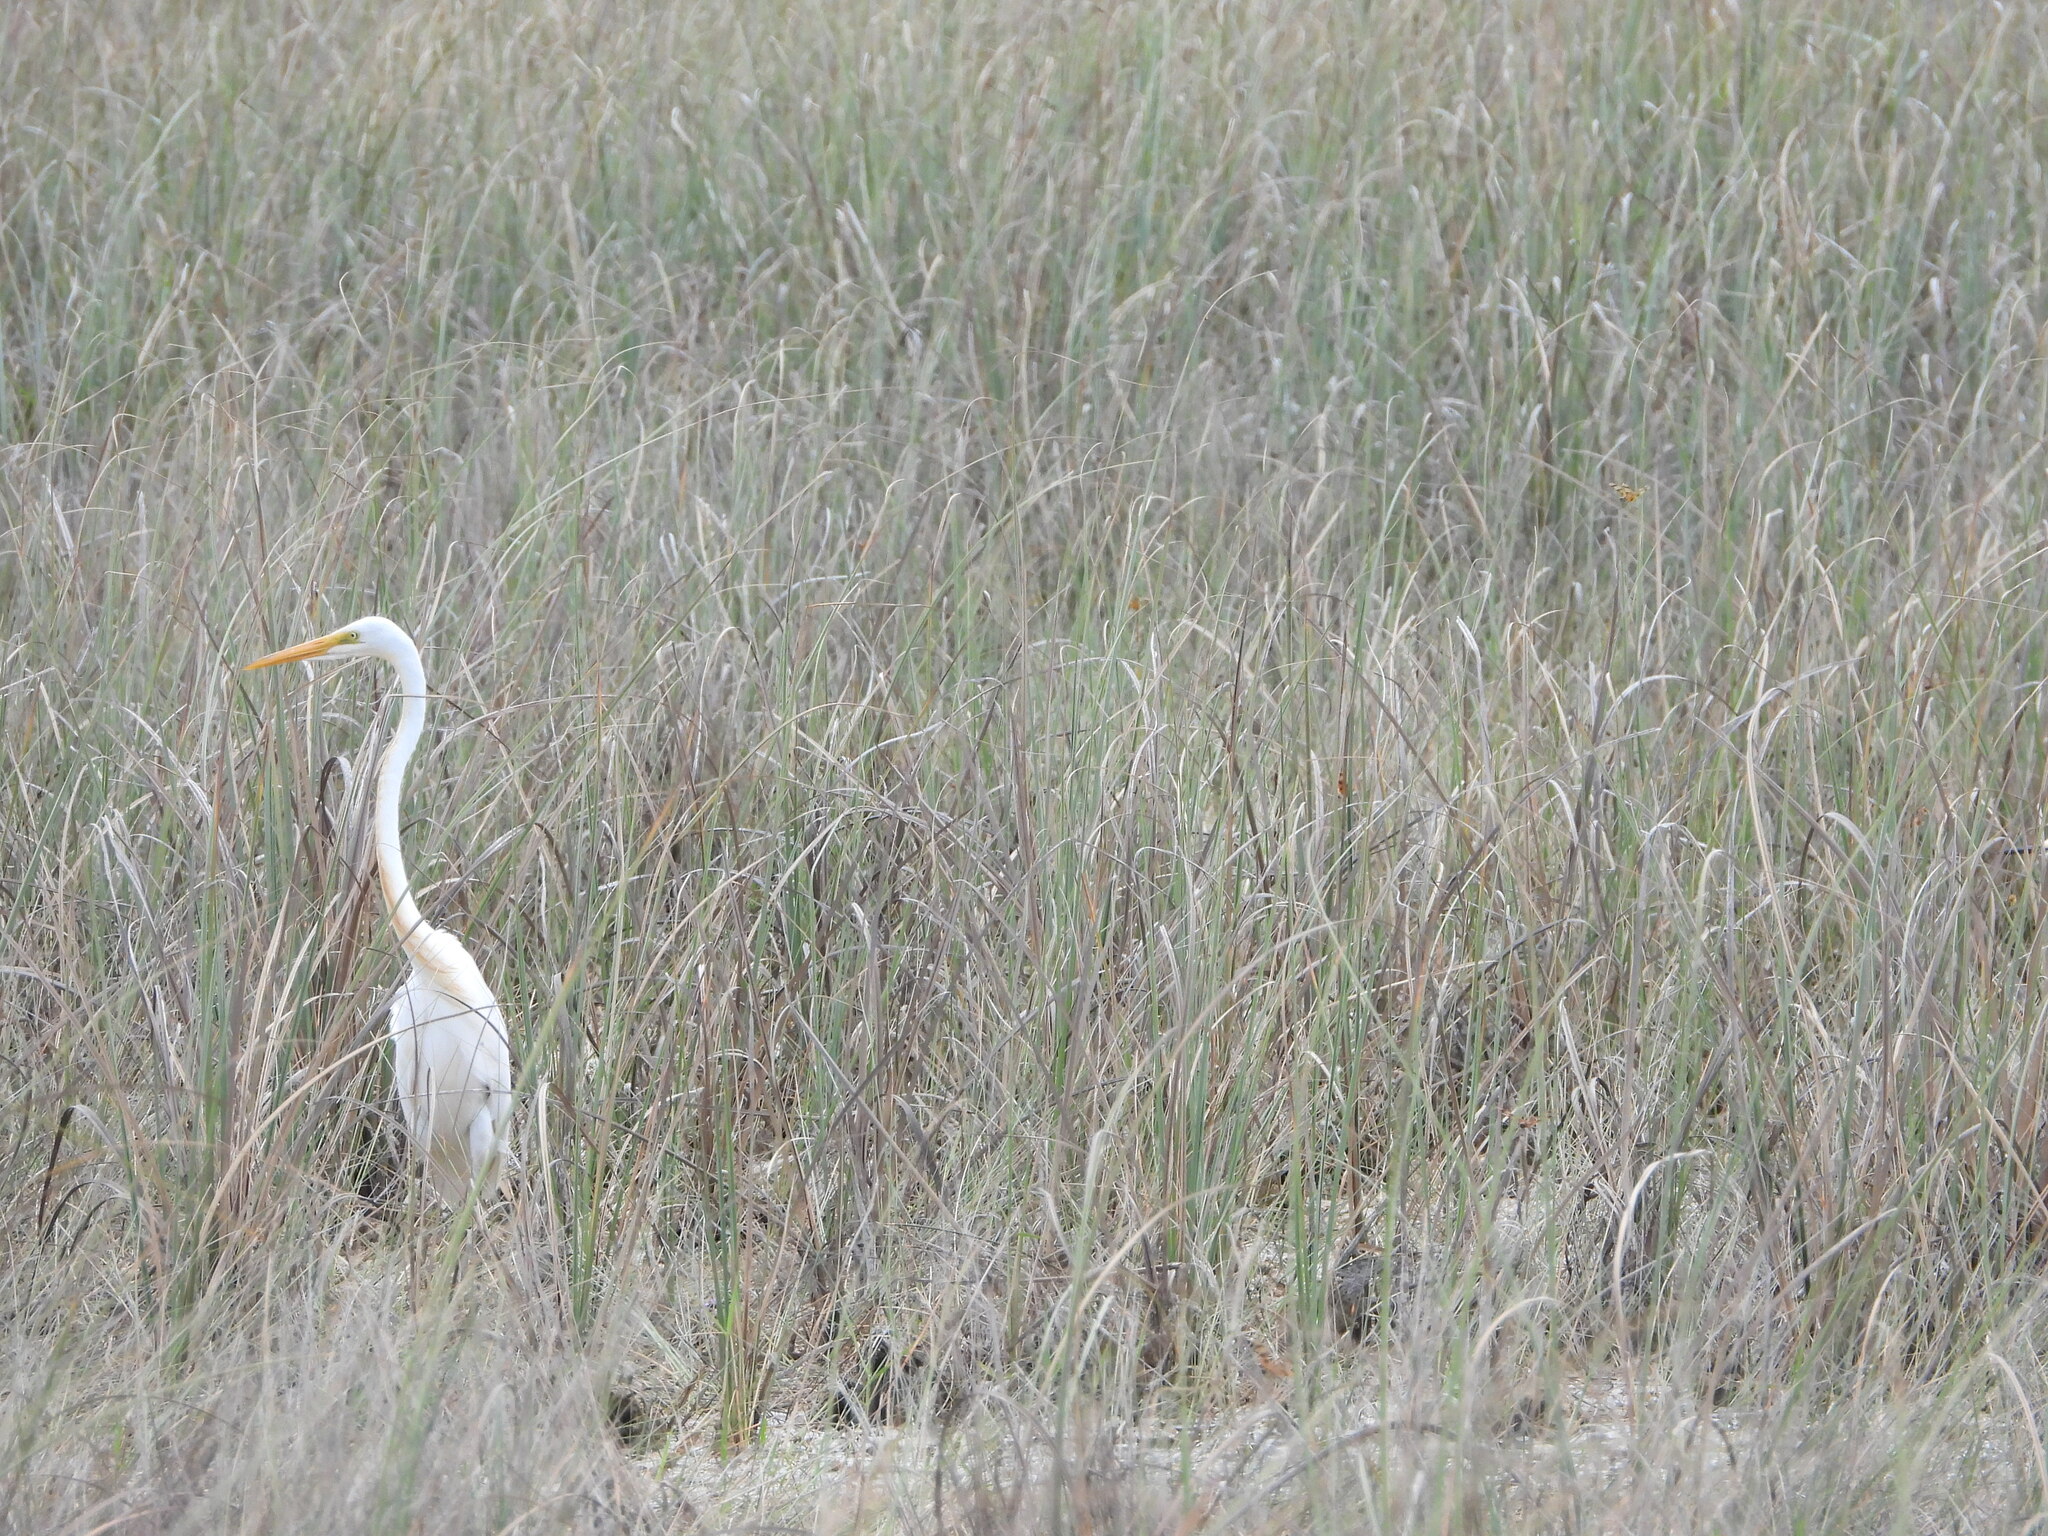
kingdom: Animalia
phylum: Chordata
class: Aves
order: Pelecaniformes
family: Ardeidae
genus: Ardea
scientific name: Ardea alba
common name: Great egret
